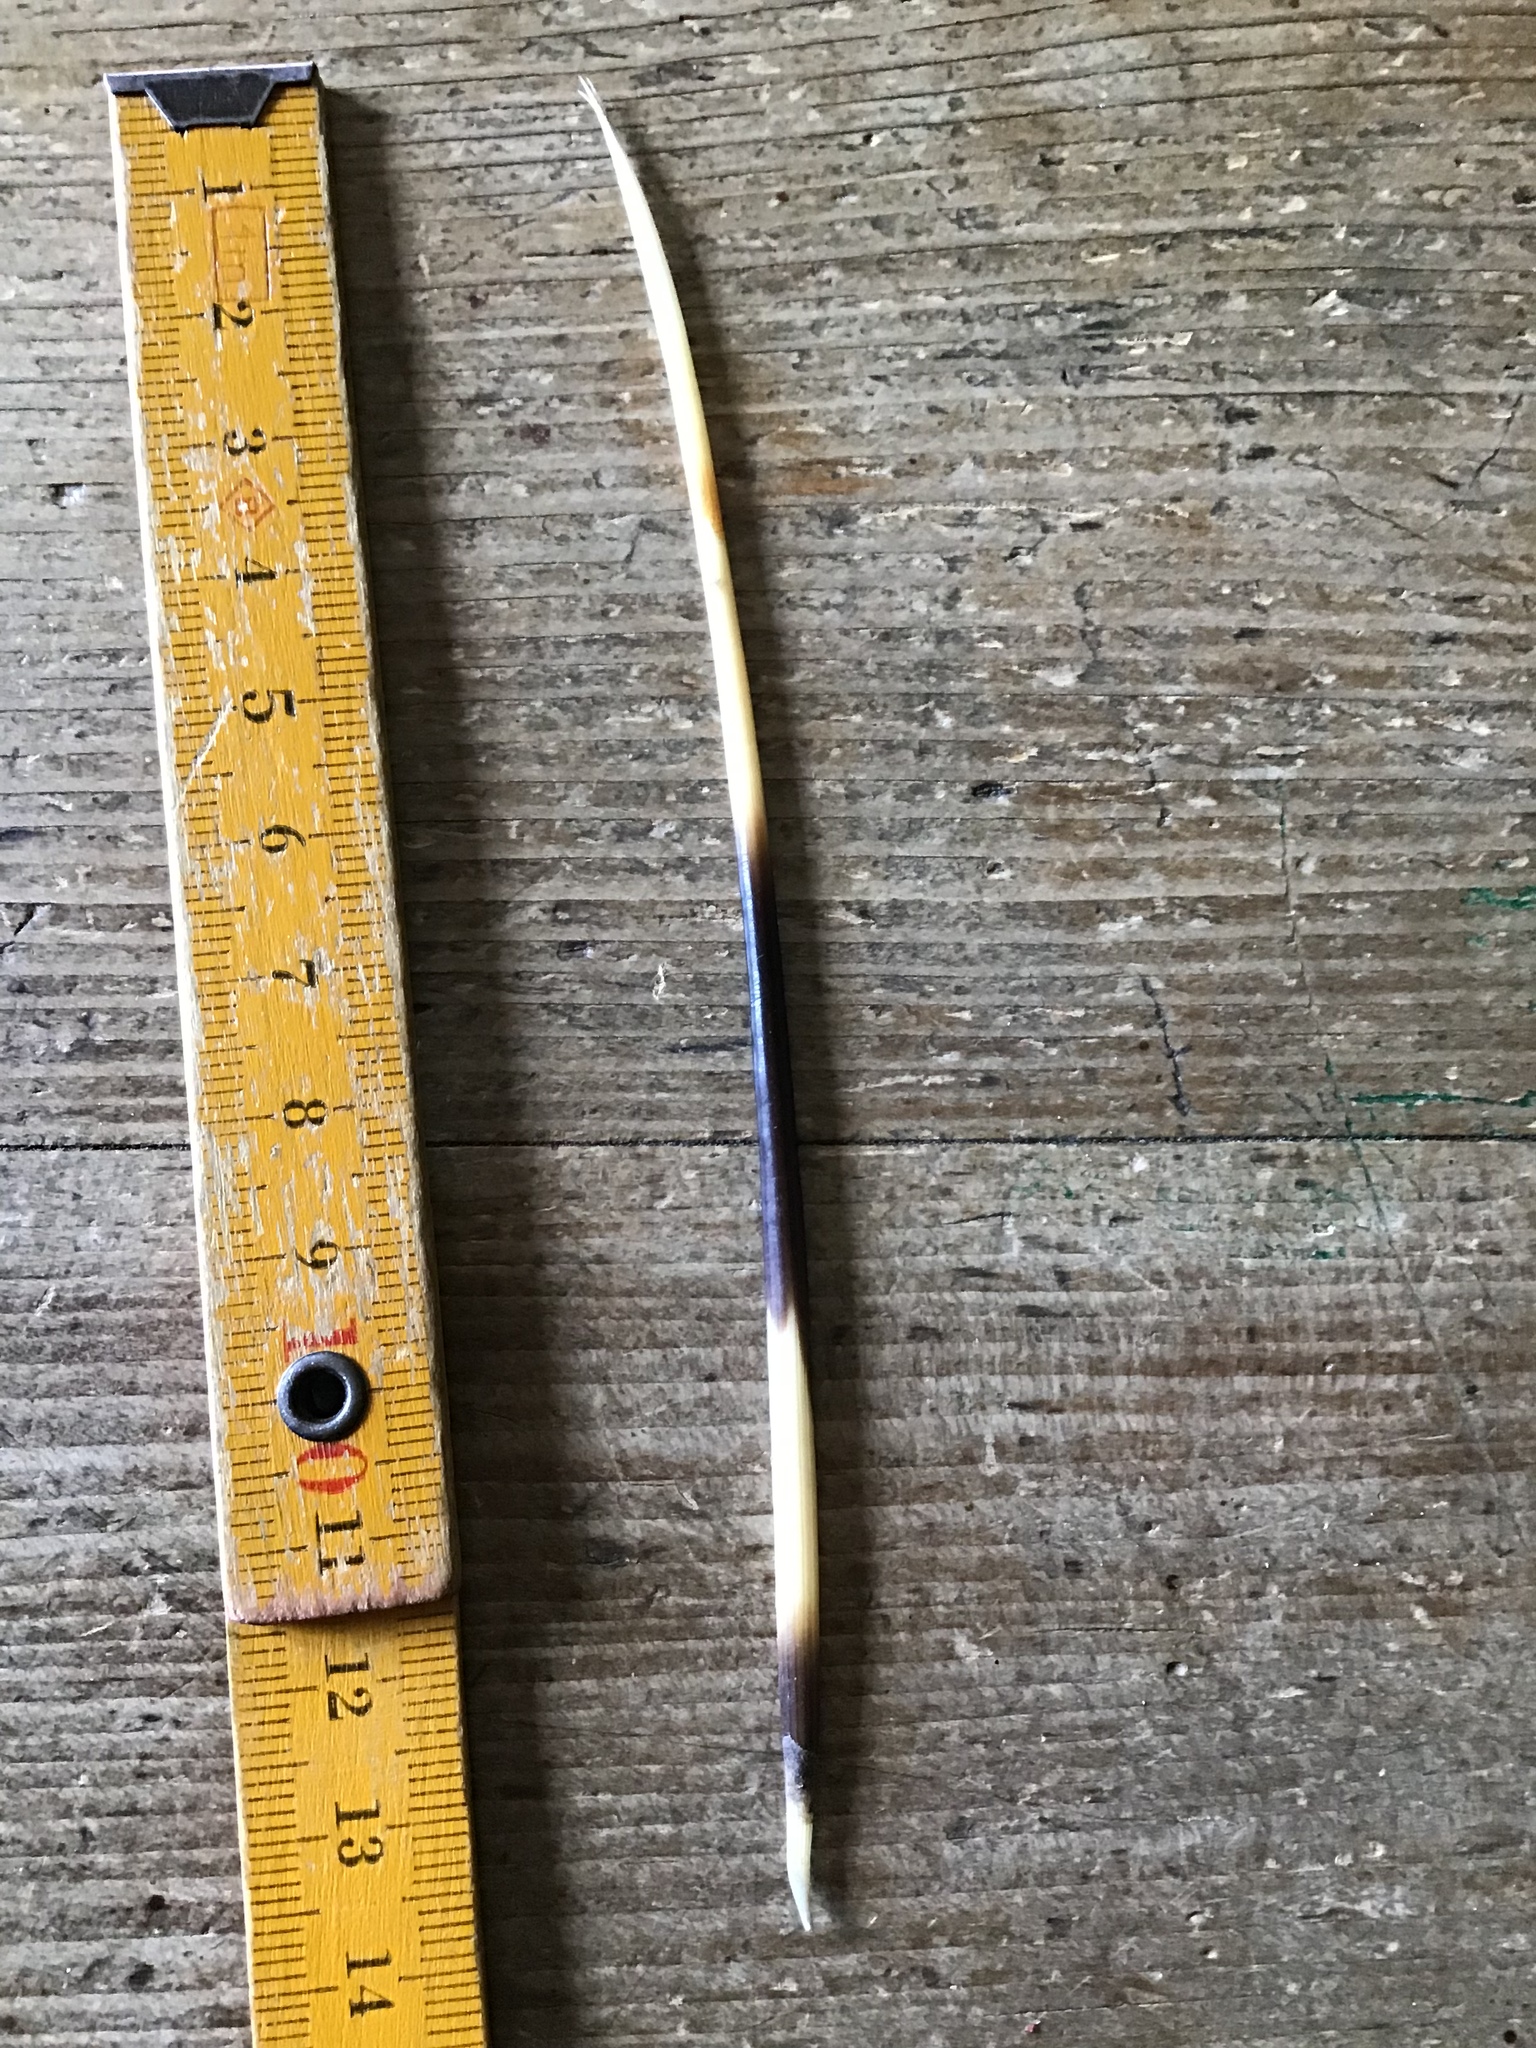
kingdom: Animalia
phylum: Chordata
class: Mammalia
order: Rodentia
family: Hystricidae
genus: Hystrix
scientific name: Hystrix cristata
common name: Crested porcupine
